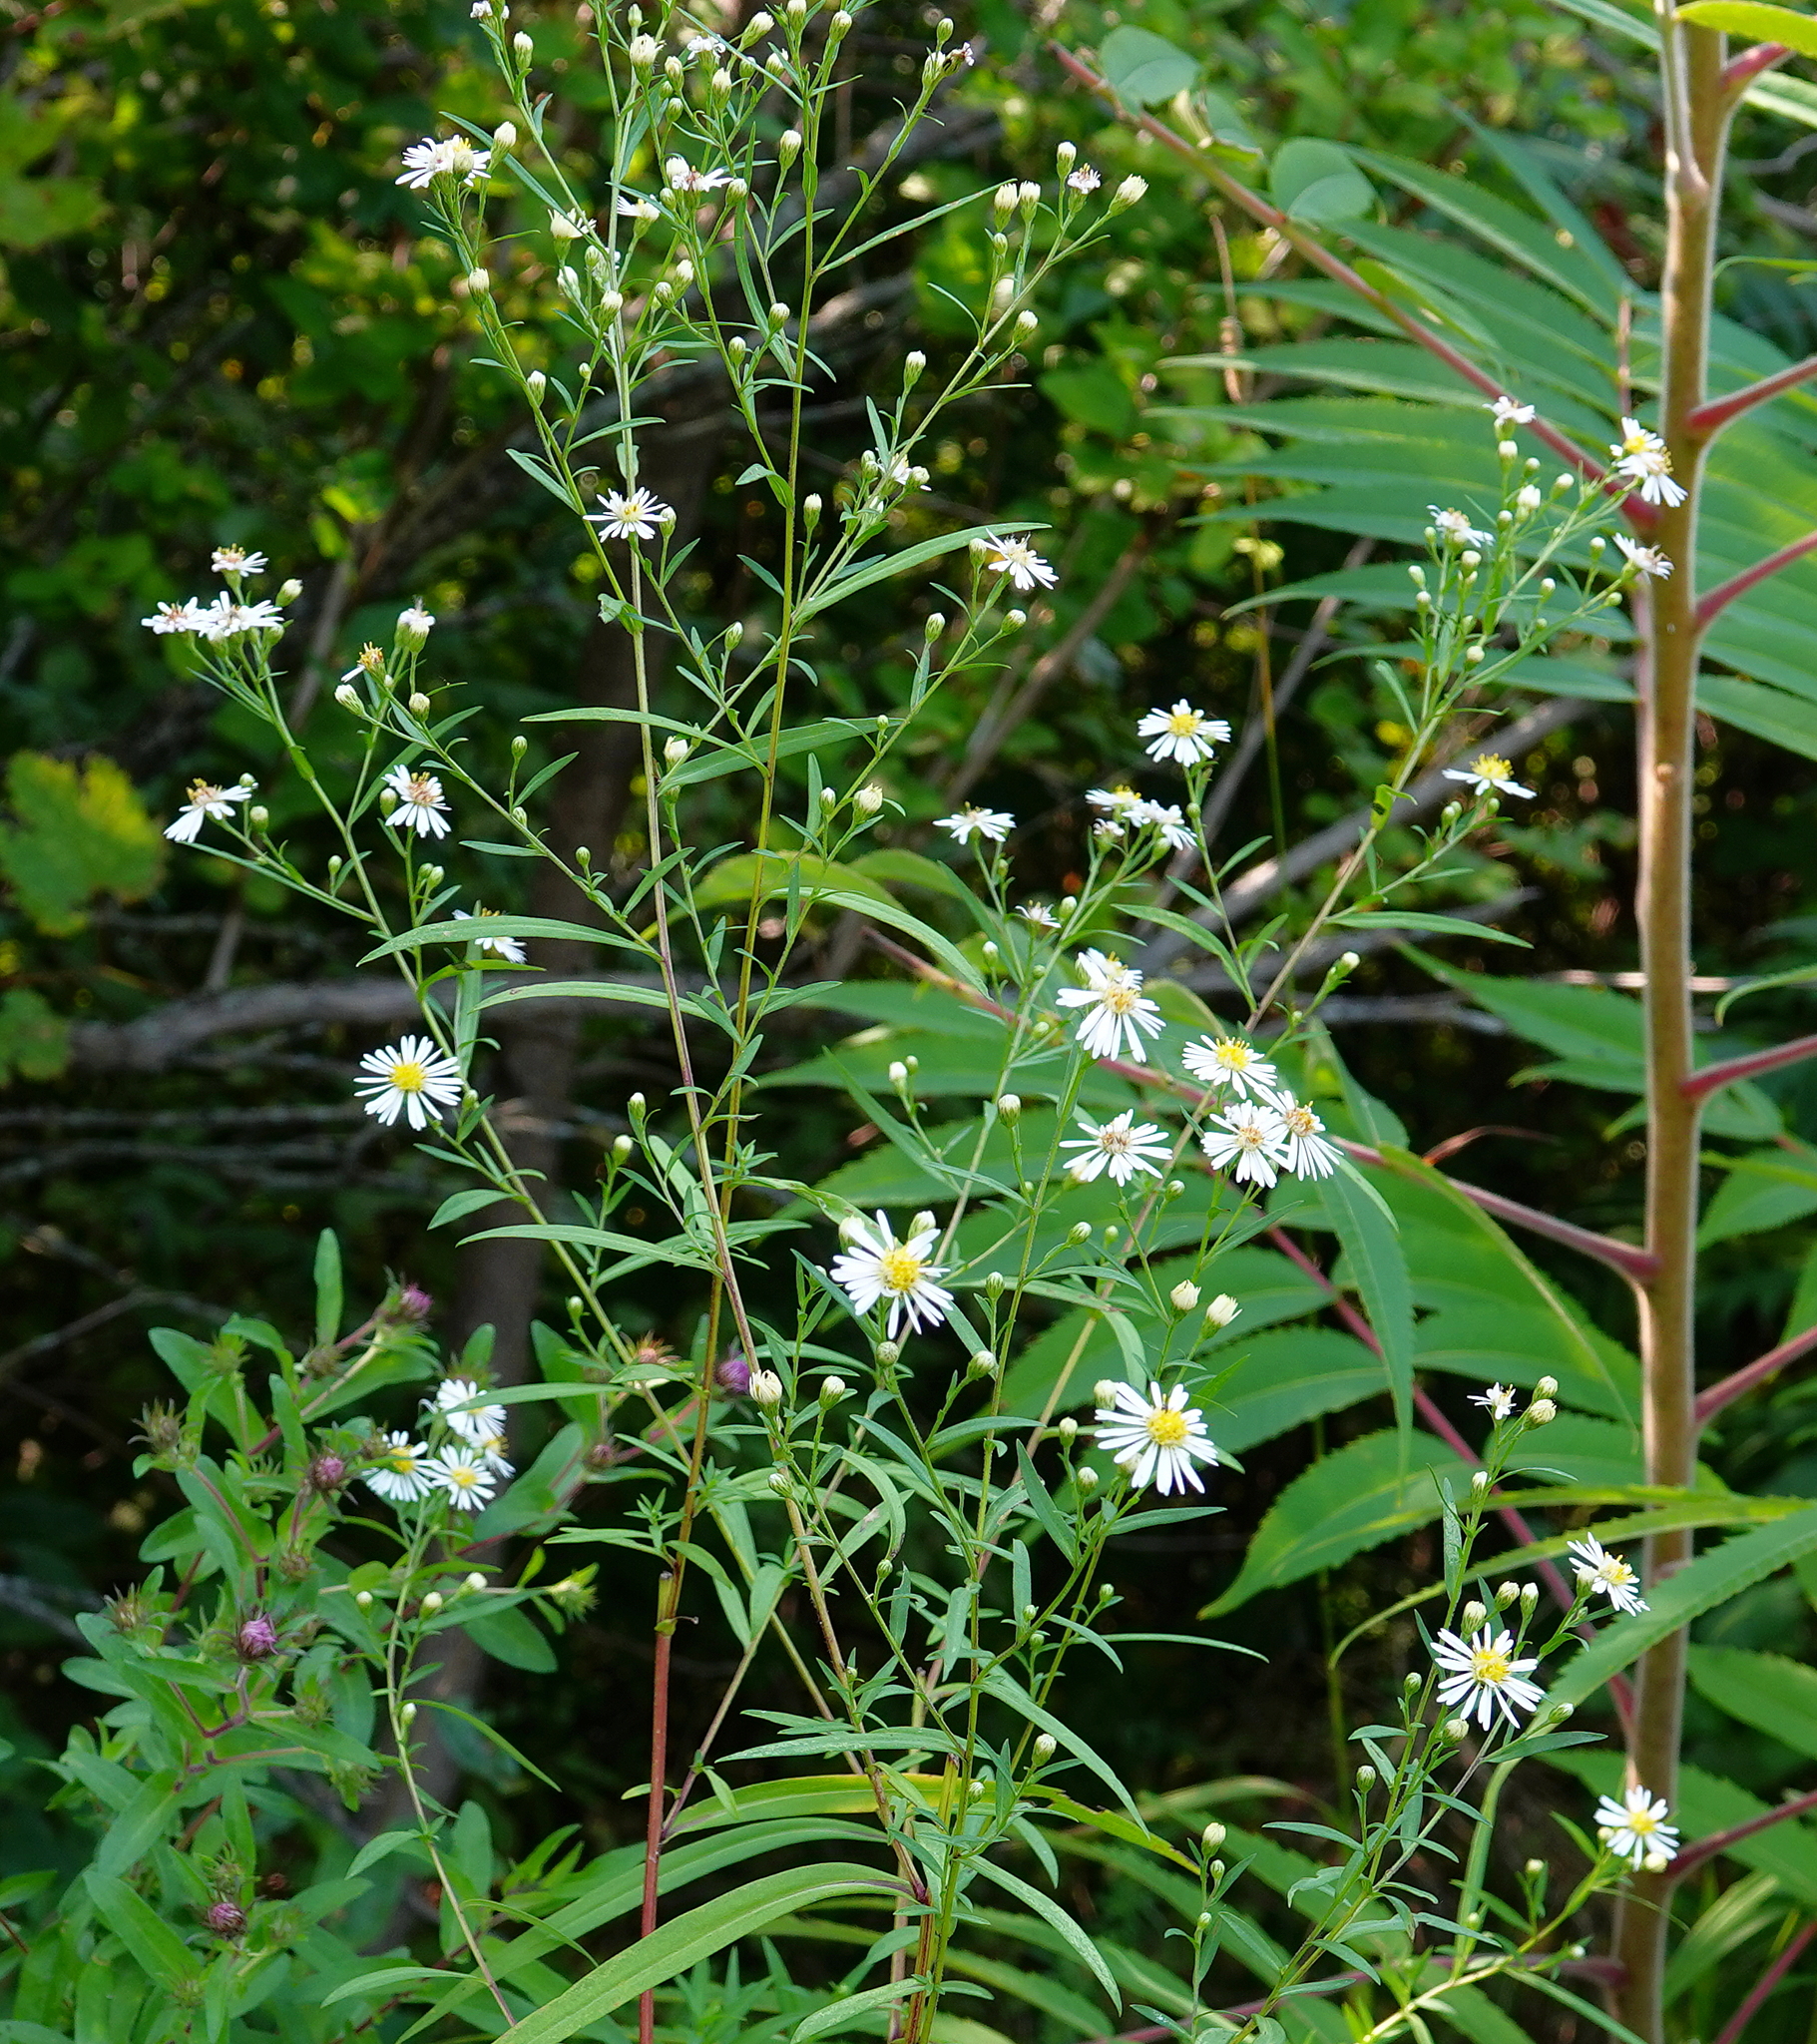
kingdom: Plantae
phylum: Tracheophyta
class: Magnoliopsida
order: Asterales
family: Asteraceae
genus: Symphyotrichum
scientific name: Symphyotrichum lanceolatum
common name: Panicled aster
